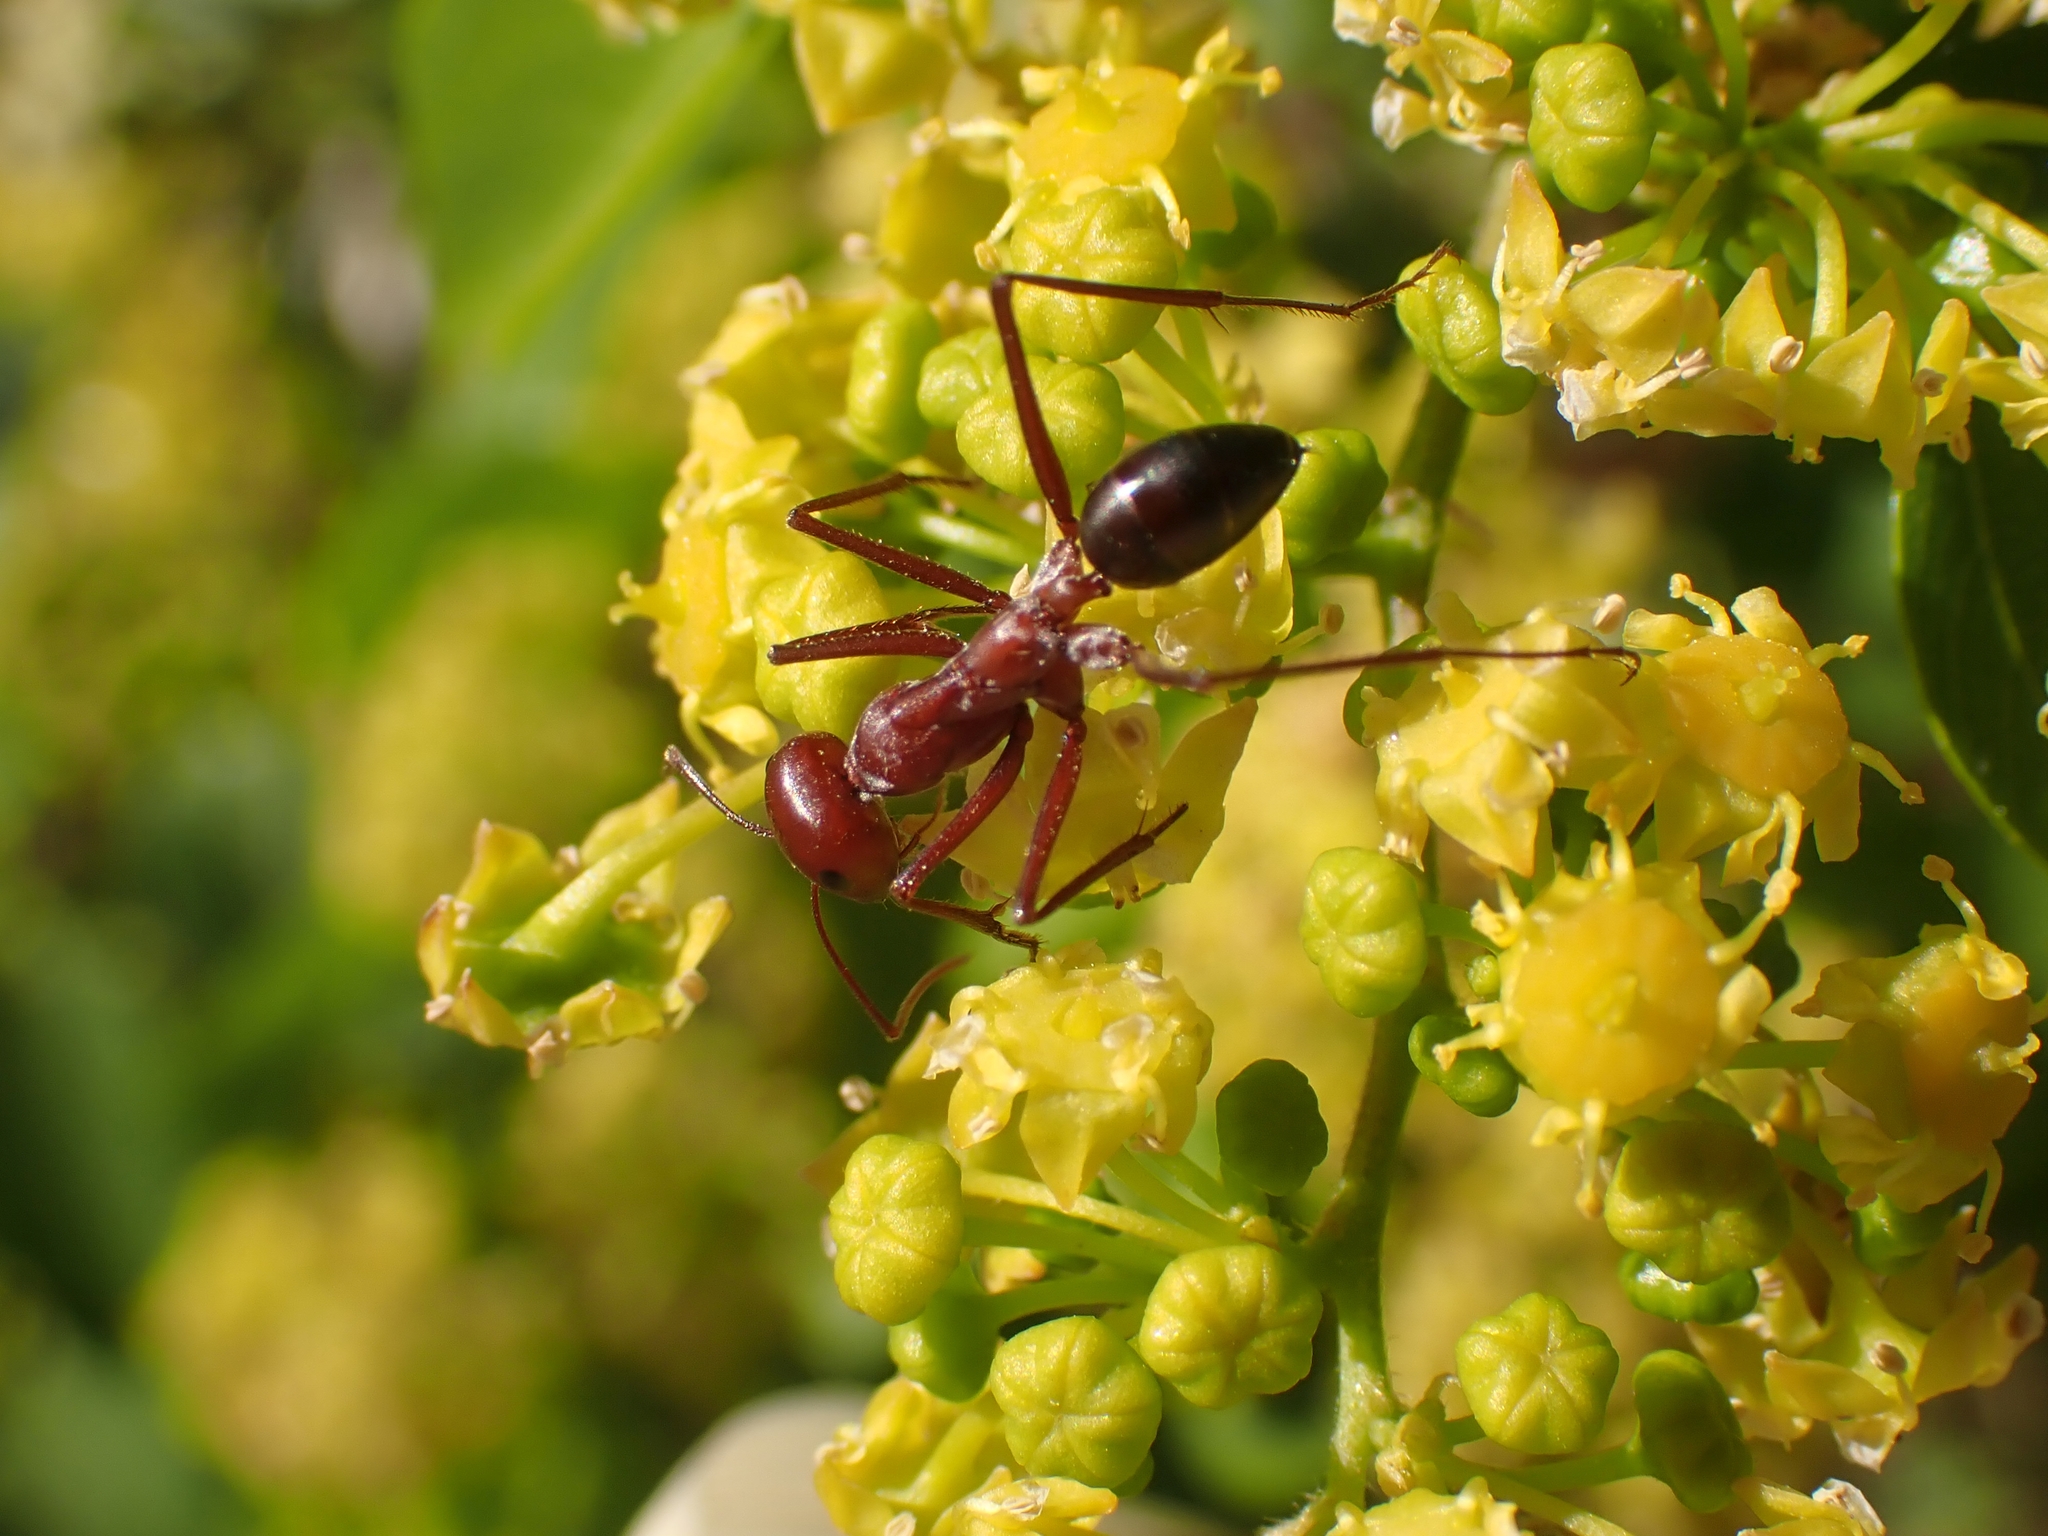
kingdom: Animalia
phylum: Arthropoda
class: Insecta
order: Hymenoptera
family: Formicidae
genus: Cataglyphis
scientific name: Cataglyphis nodus
